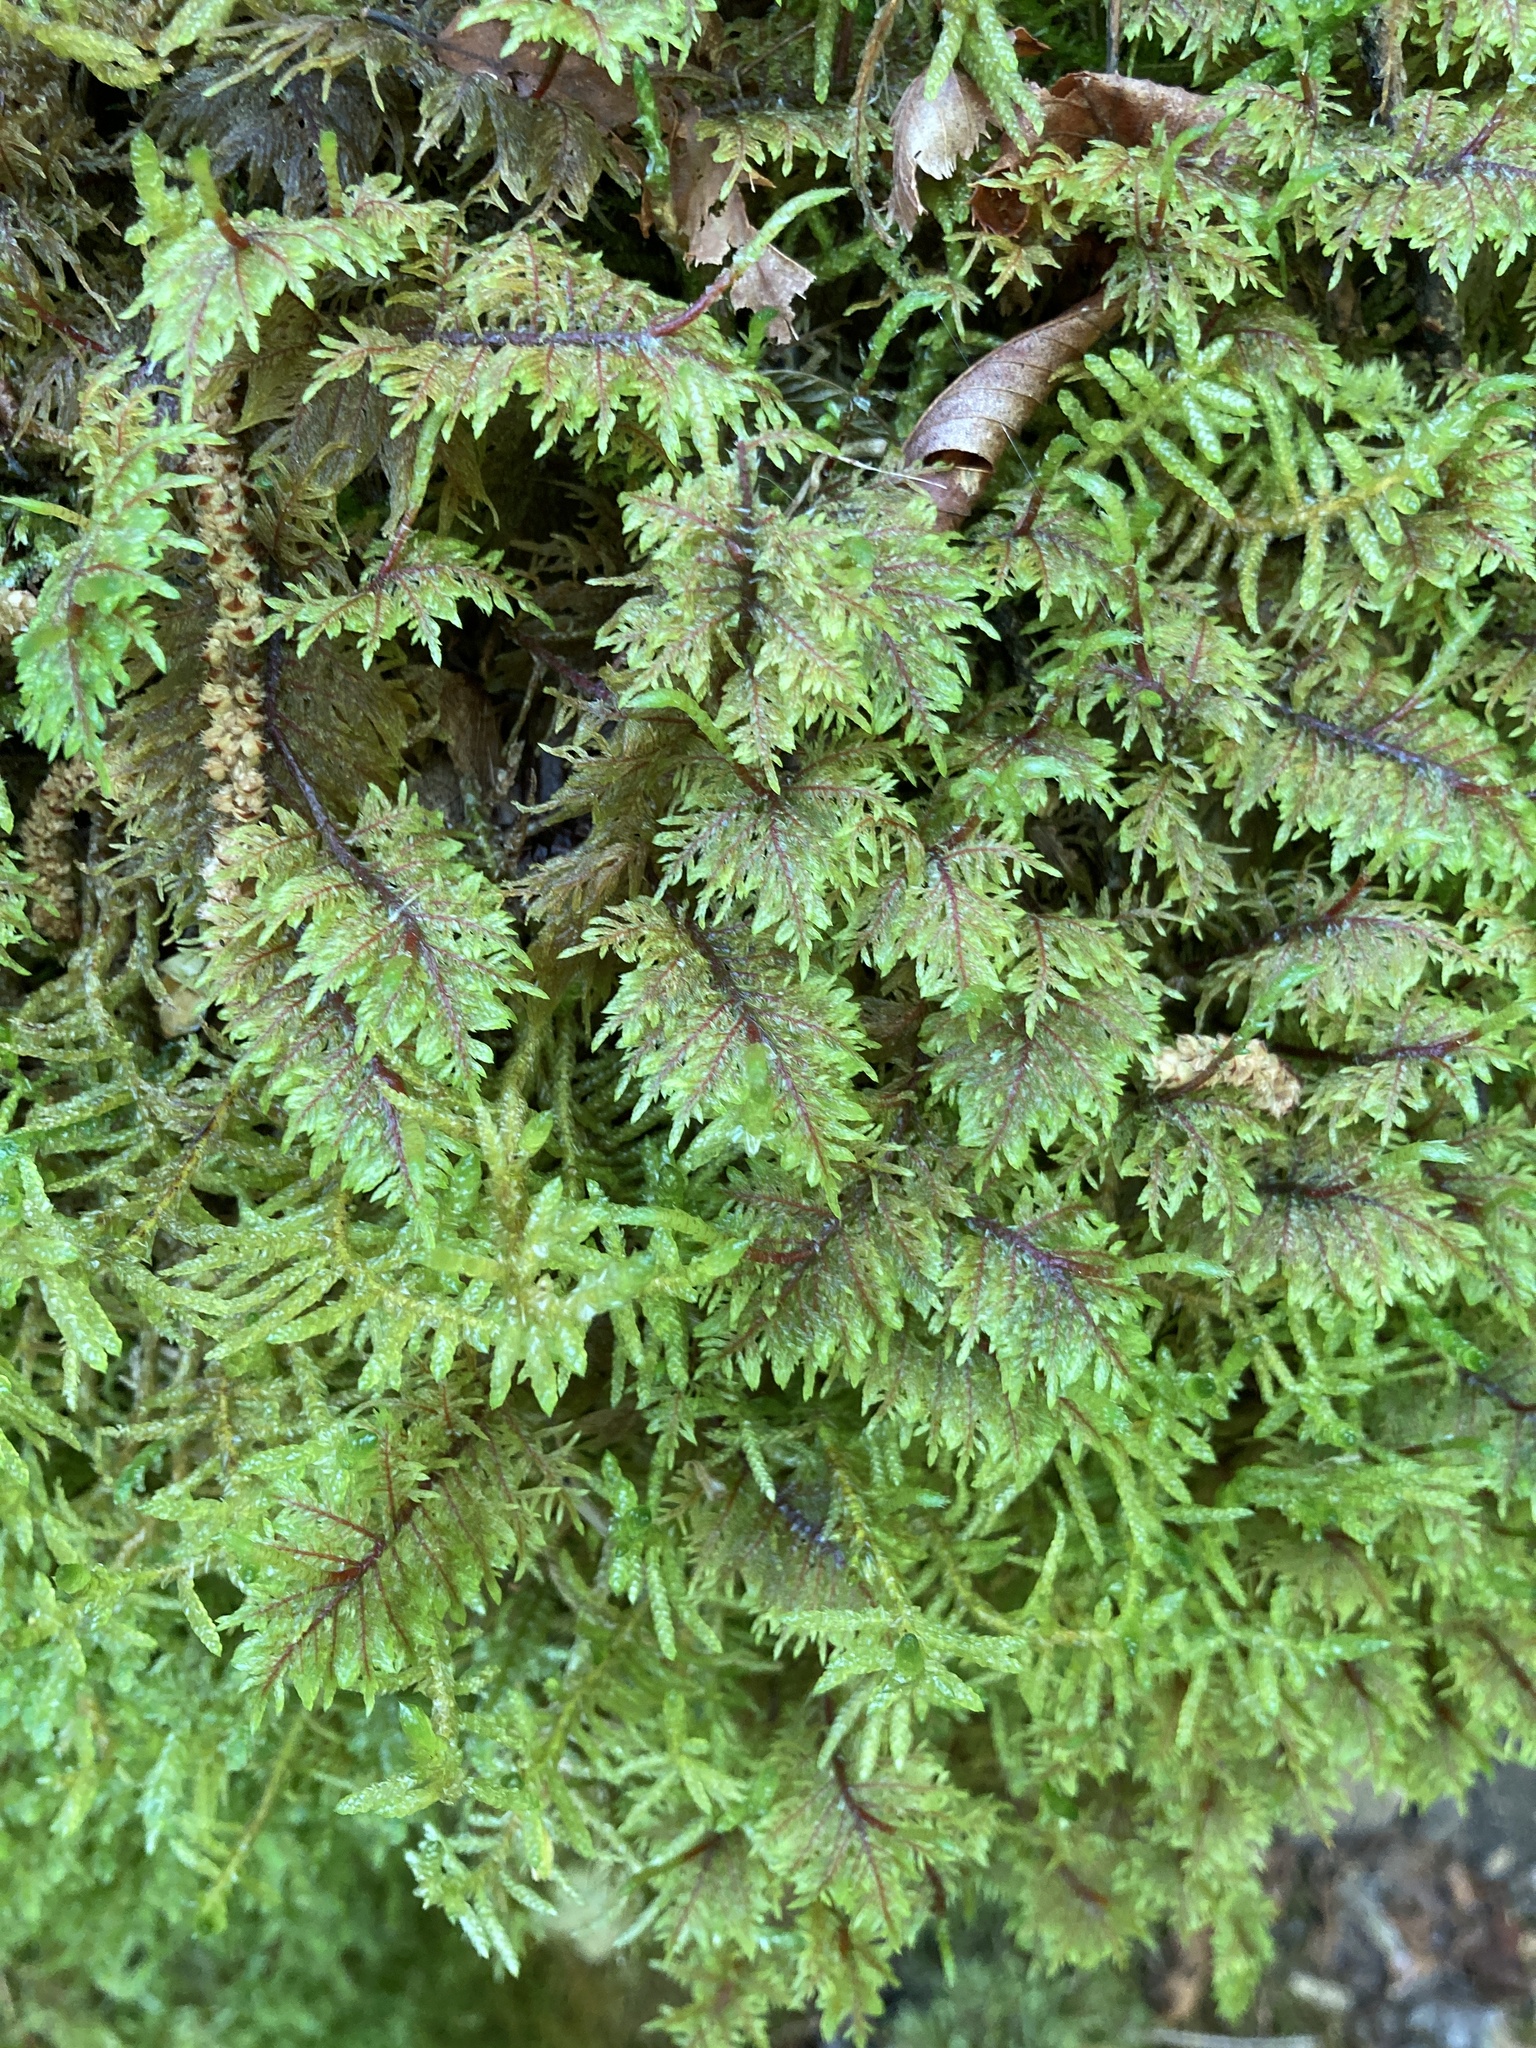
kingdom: Plantae
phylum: Bryophyta
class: Bryopsida
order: Hypnales
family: Hylocomiaceae
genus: Hylocomium
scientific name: Hylocomium splendens
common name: Stairstep moss
